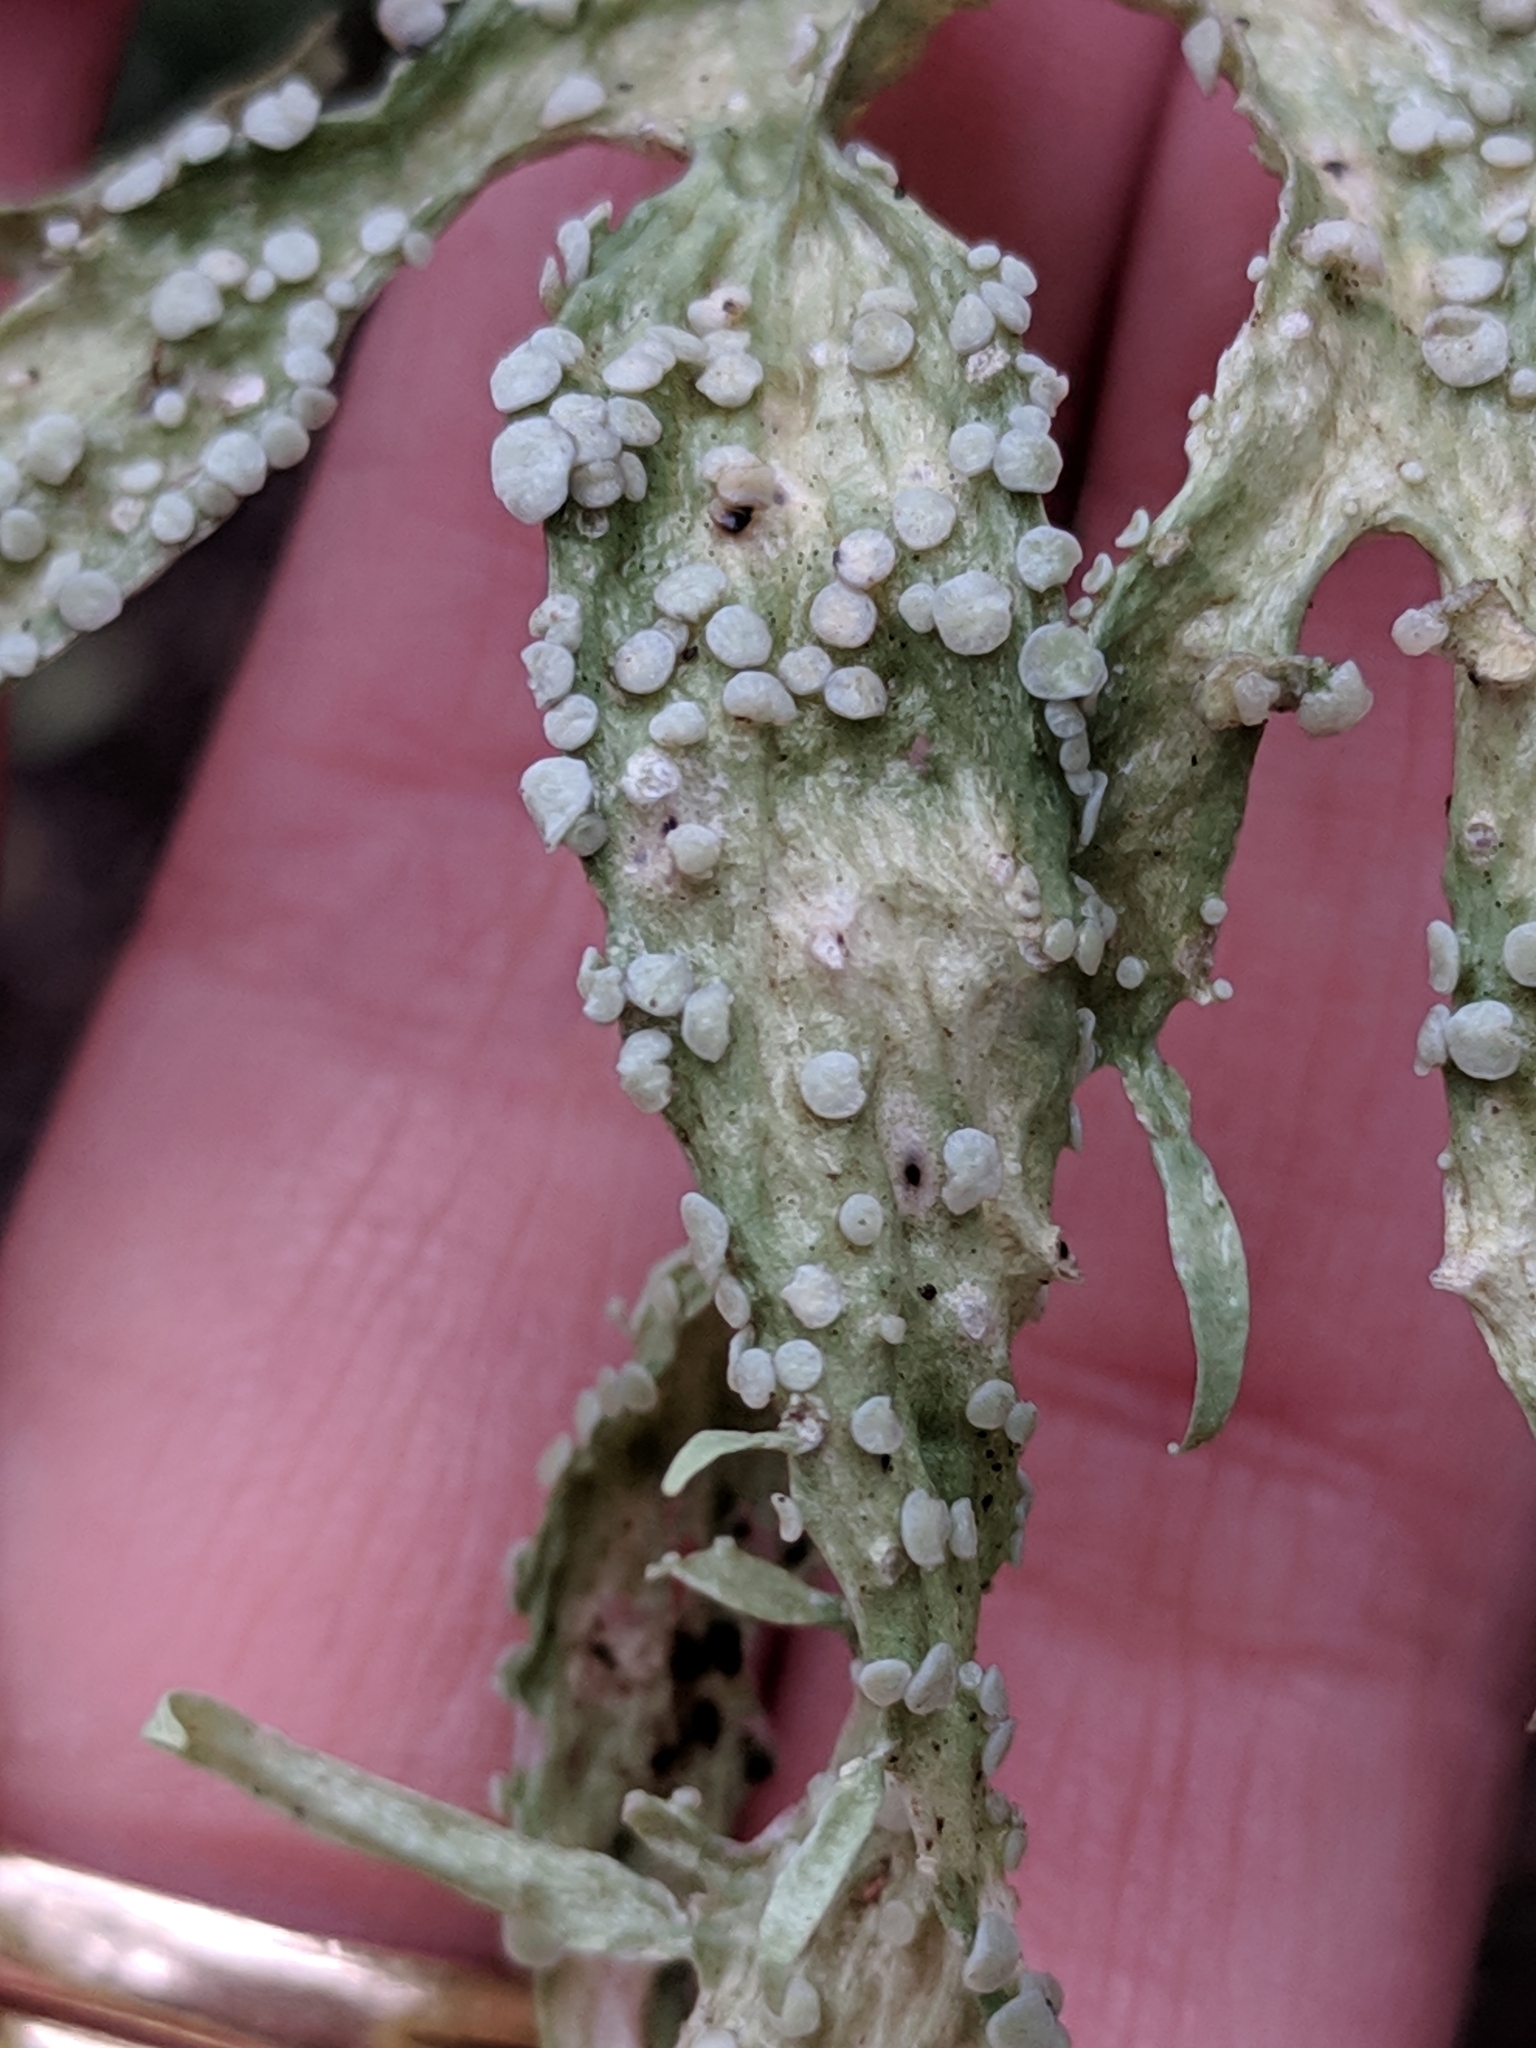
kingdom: Fungi
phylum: Ascomycota
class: Lecanoromycetes
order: Lecanorales
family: Ramalinaceae
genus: Ramalina
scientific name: Ramalina celastri
